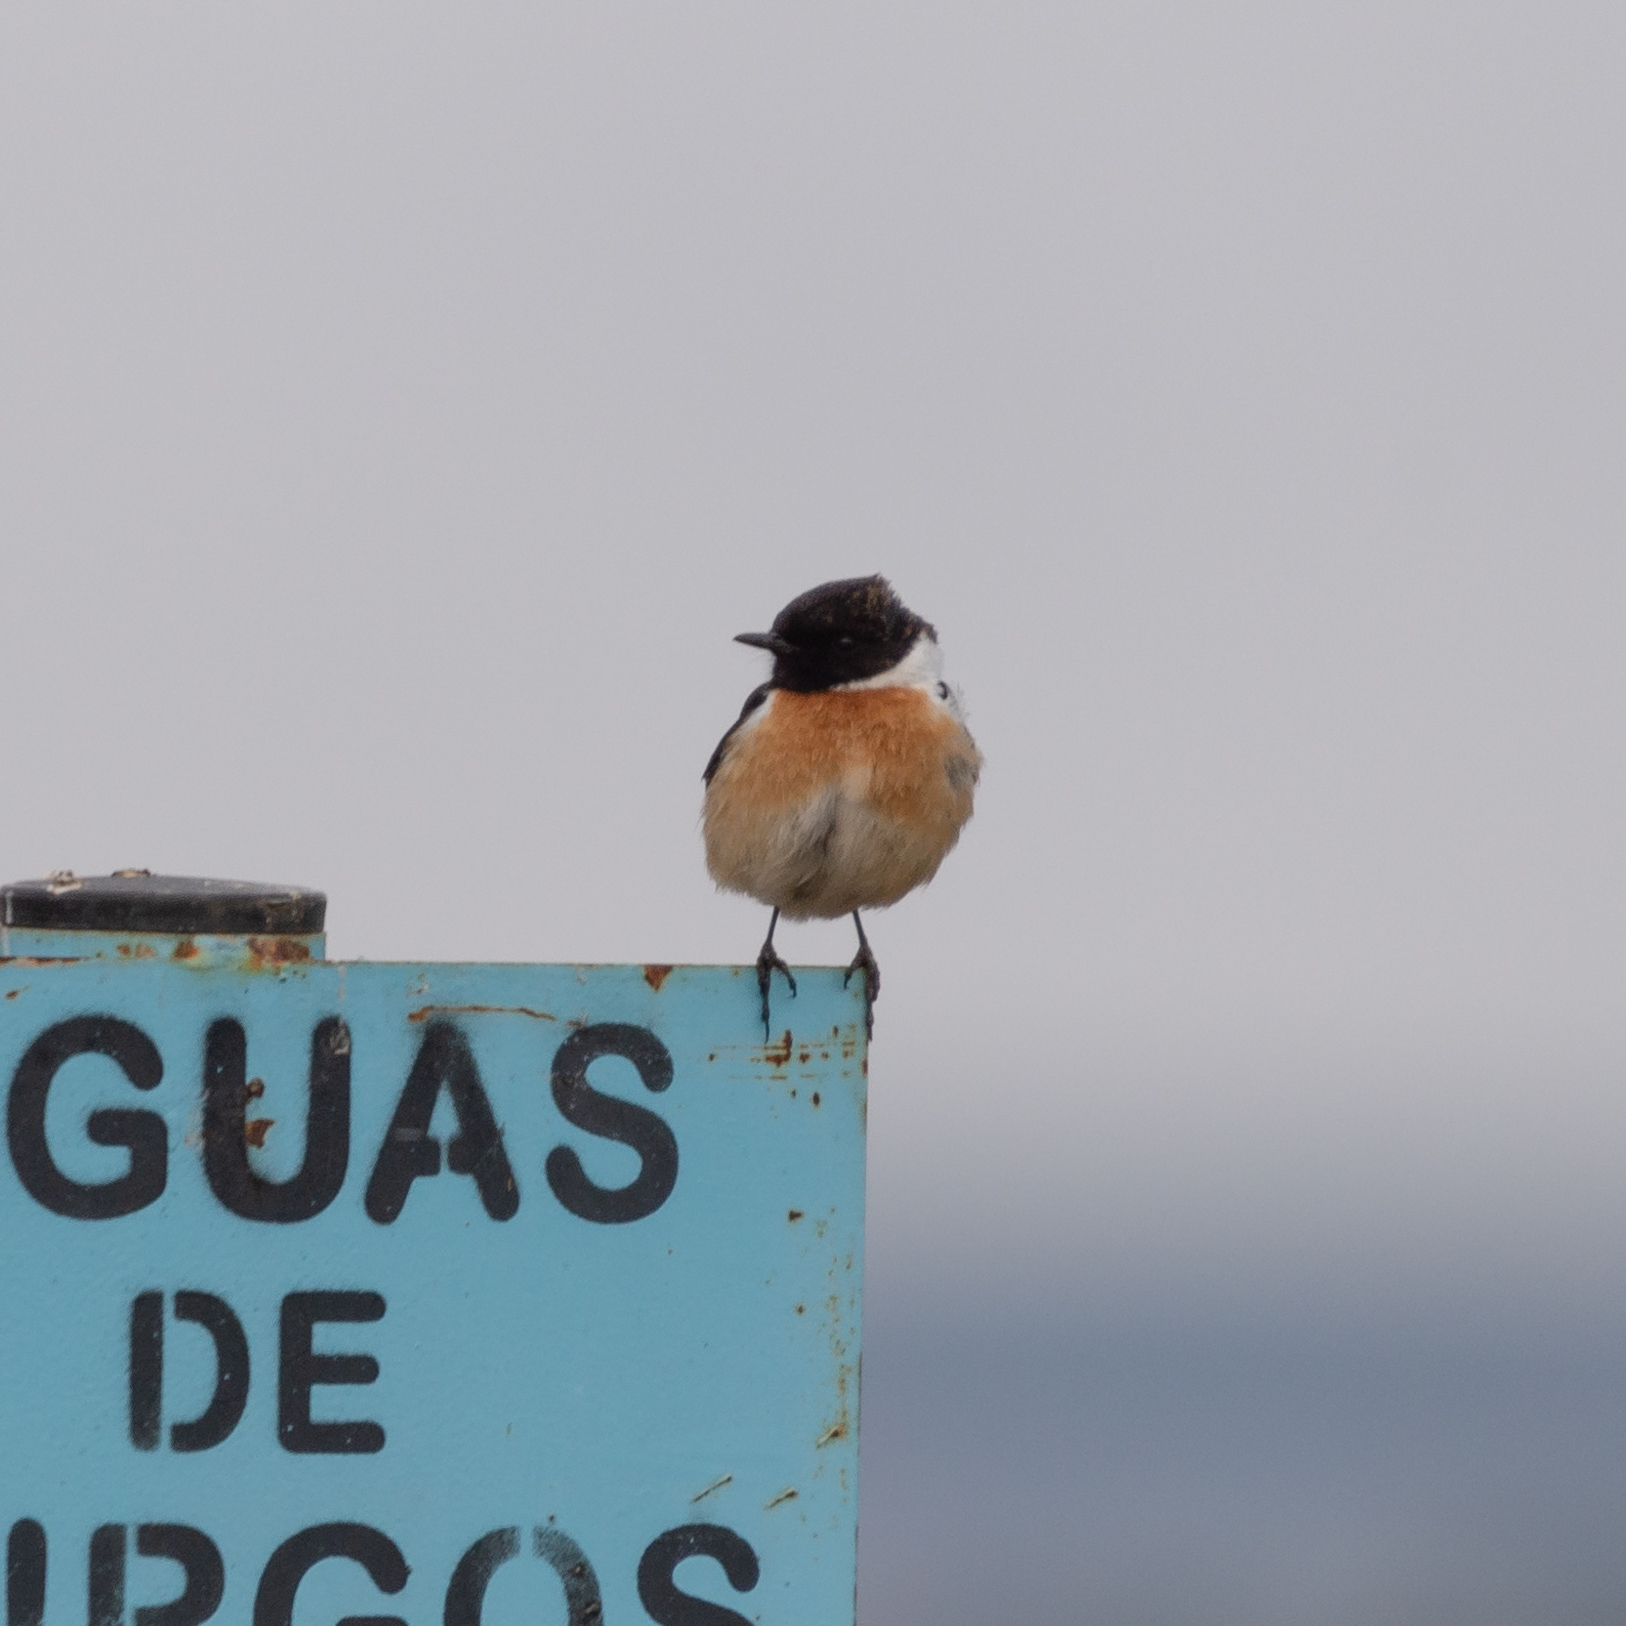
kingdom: Animalia
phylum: Chordata
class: Aves
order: Passeriformes
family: Muscicapidae
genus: Saxicola
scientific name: Saxicola rubicola
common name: European stonechat
